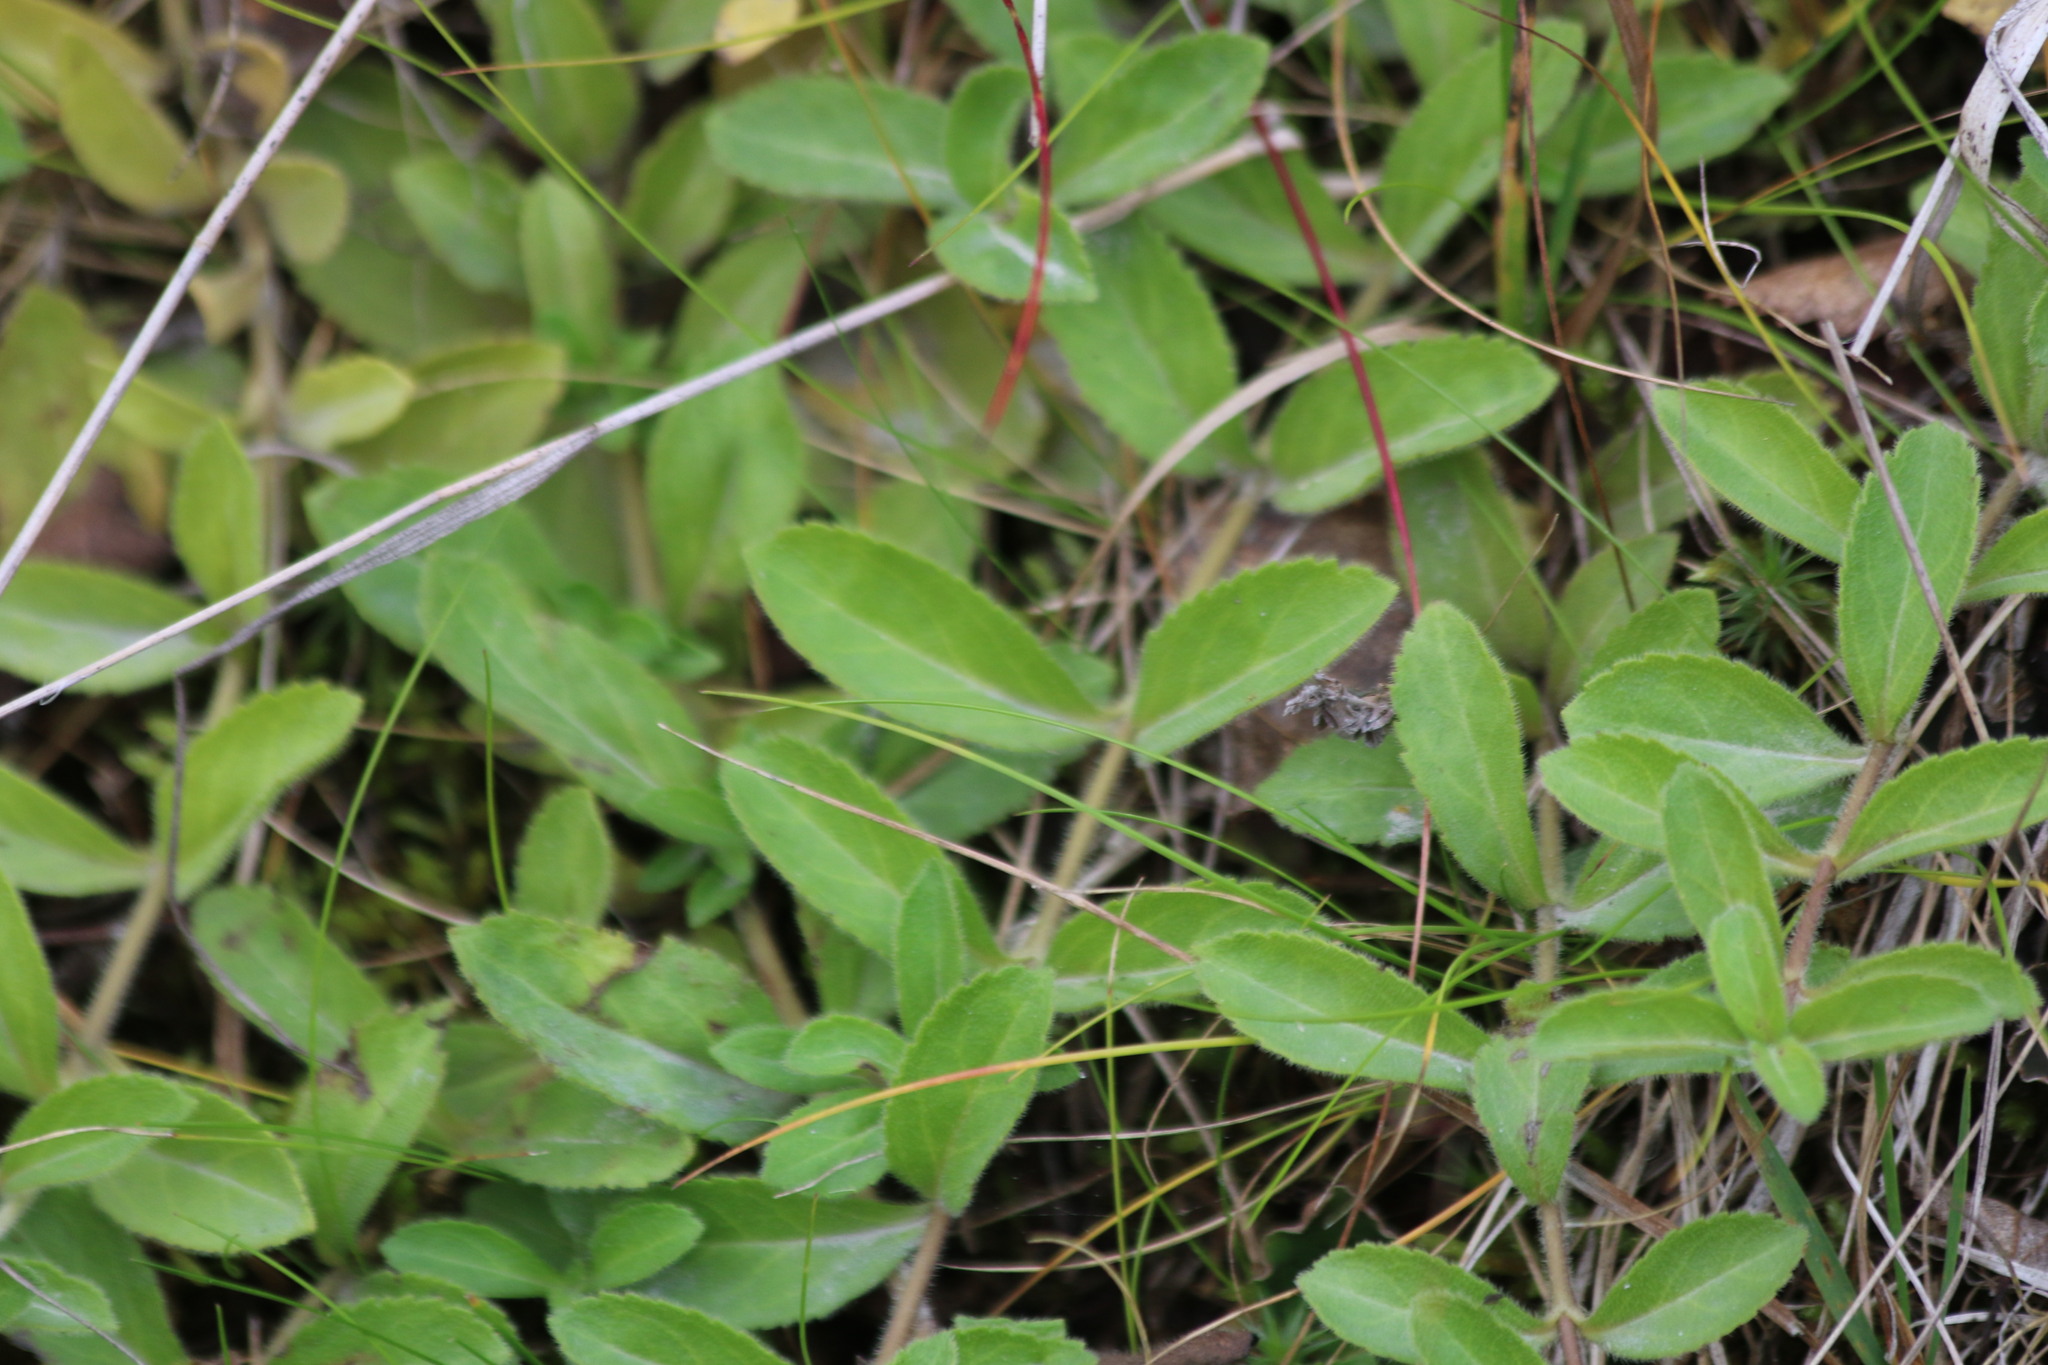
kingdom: Plantae
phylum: Tracheophyta
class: Magnoliopsida
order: Lamiales
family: Plantaginaceae
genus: Veronica
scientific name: Veronica officinalis
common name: Common speedwell
